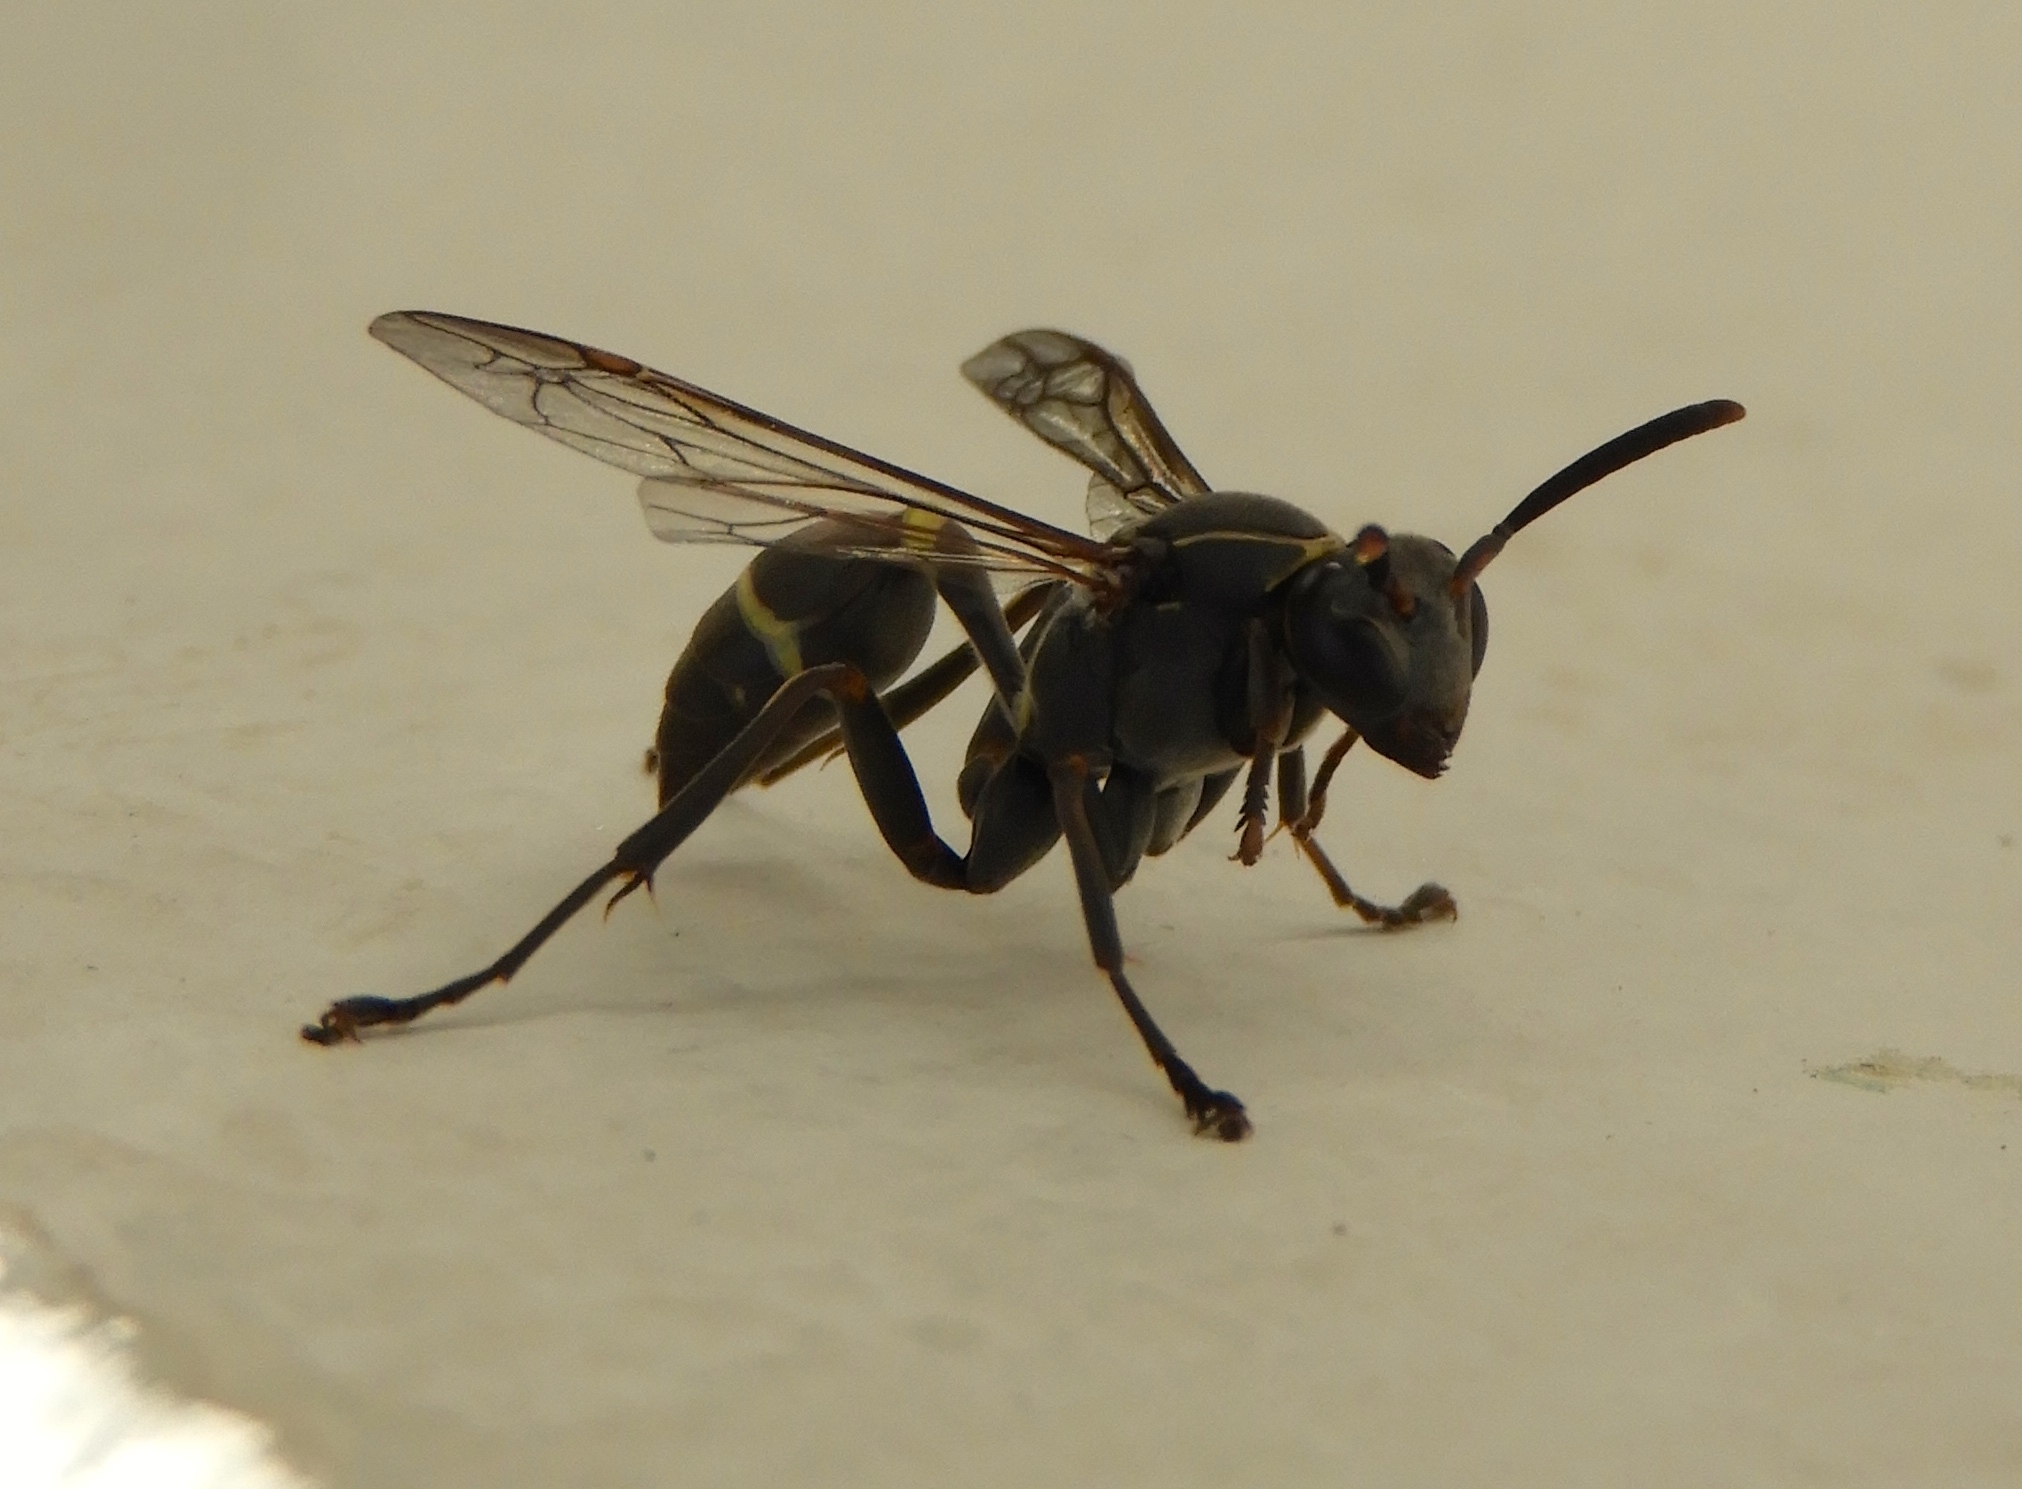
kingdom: Animalia
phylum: Arthropoda
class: Insecta
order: Hymenoptera
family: Vespidae
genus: Mischocyttarus
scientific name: Mischocyttarus pallidipectus
